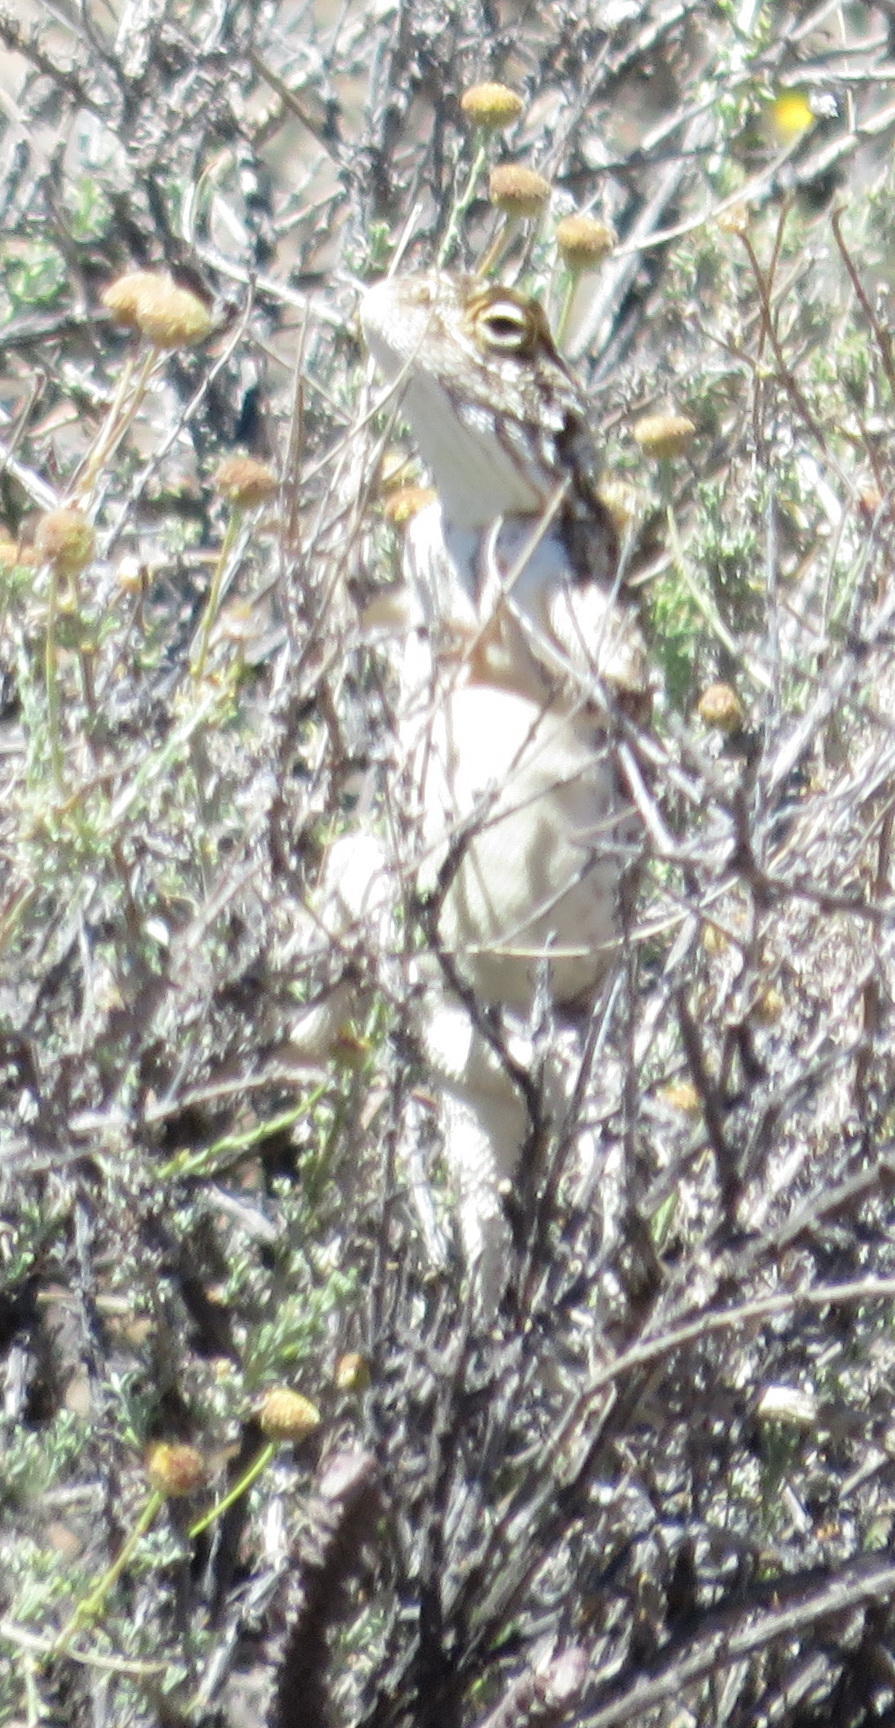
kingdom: Animalia
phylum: Chordata
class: Squamata
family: Agamidae
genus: Agama
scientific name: Agama aculeata
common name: Common ground agama
